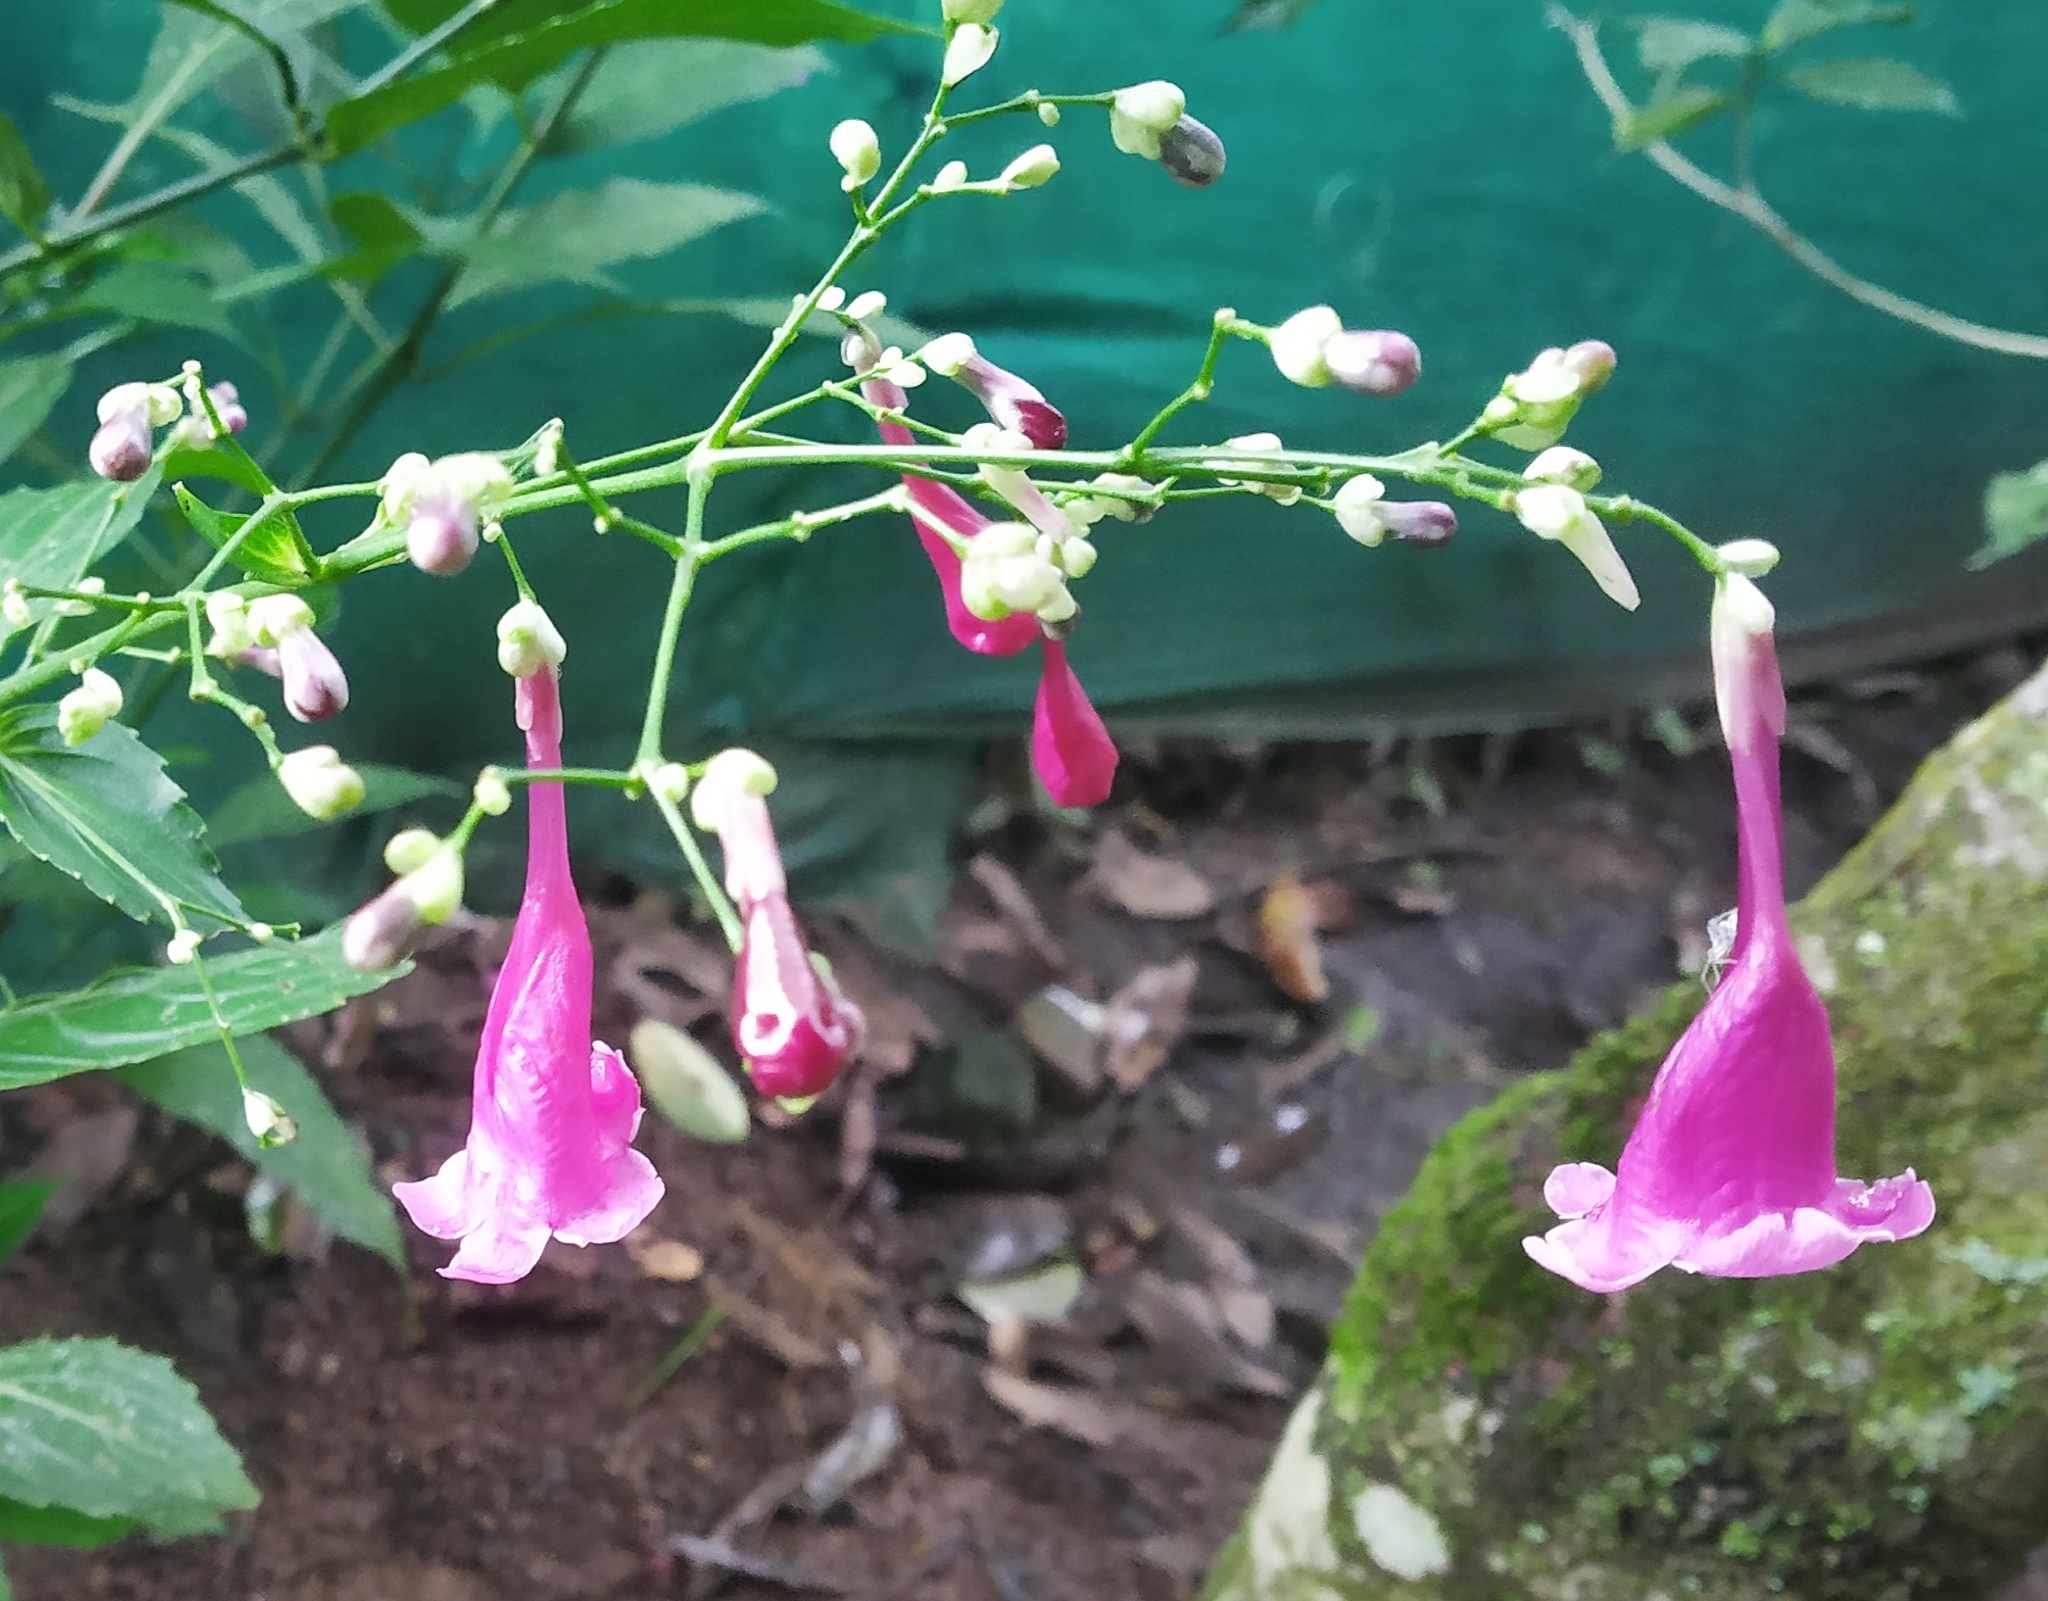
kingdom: Plantae
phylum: Tracheophyta
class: Magnoliopsida
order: Lamiales
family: Acanthaceae
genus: Strobilanthes
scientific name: Strobilanthes hamiltoniana
